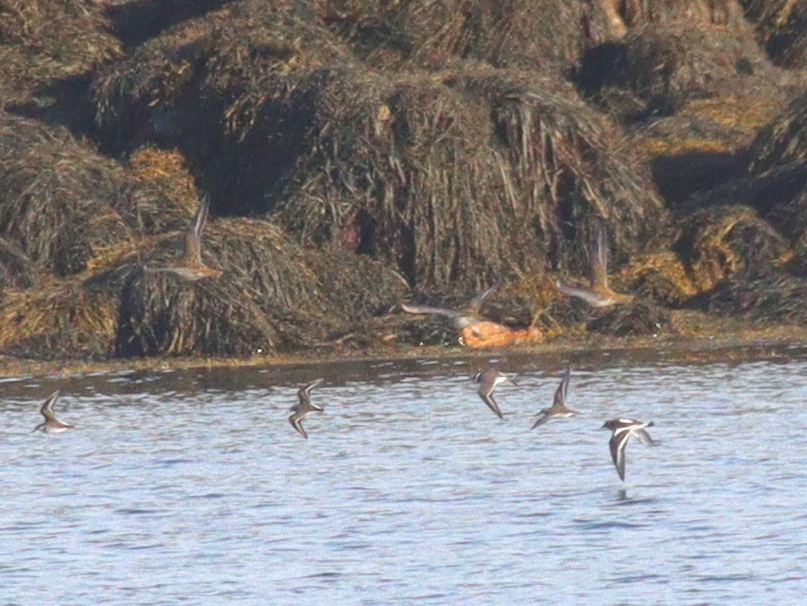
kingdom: Animalia
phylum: Chordata
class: Aves
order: Charadriiformes
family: Charadriidae
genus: Pluvialis
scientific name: Pluvialis apricaria
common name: European golden plover
